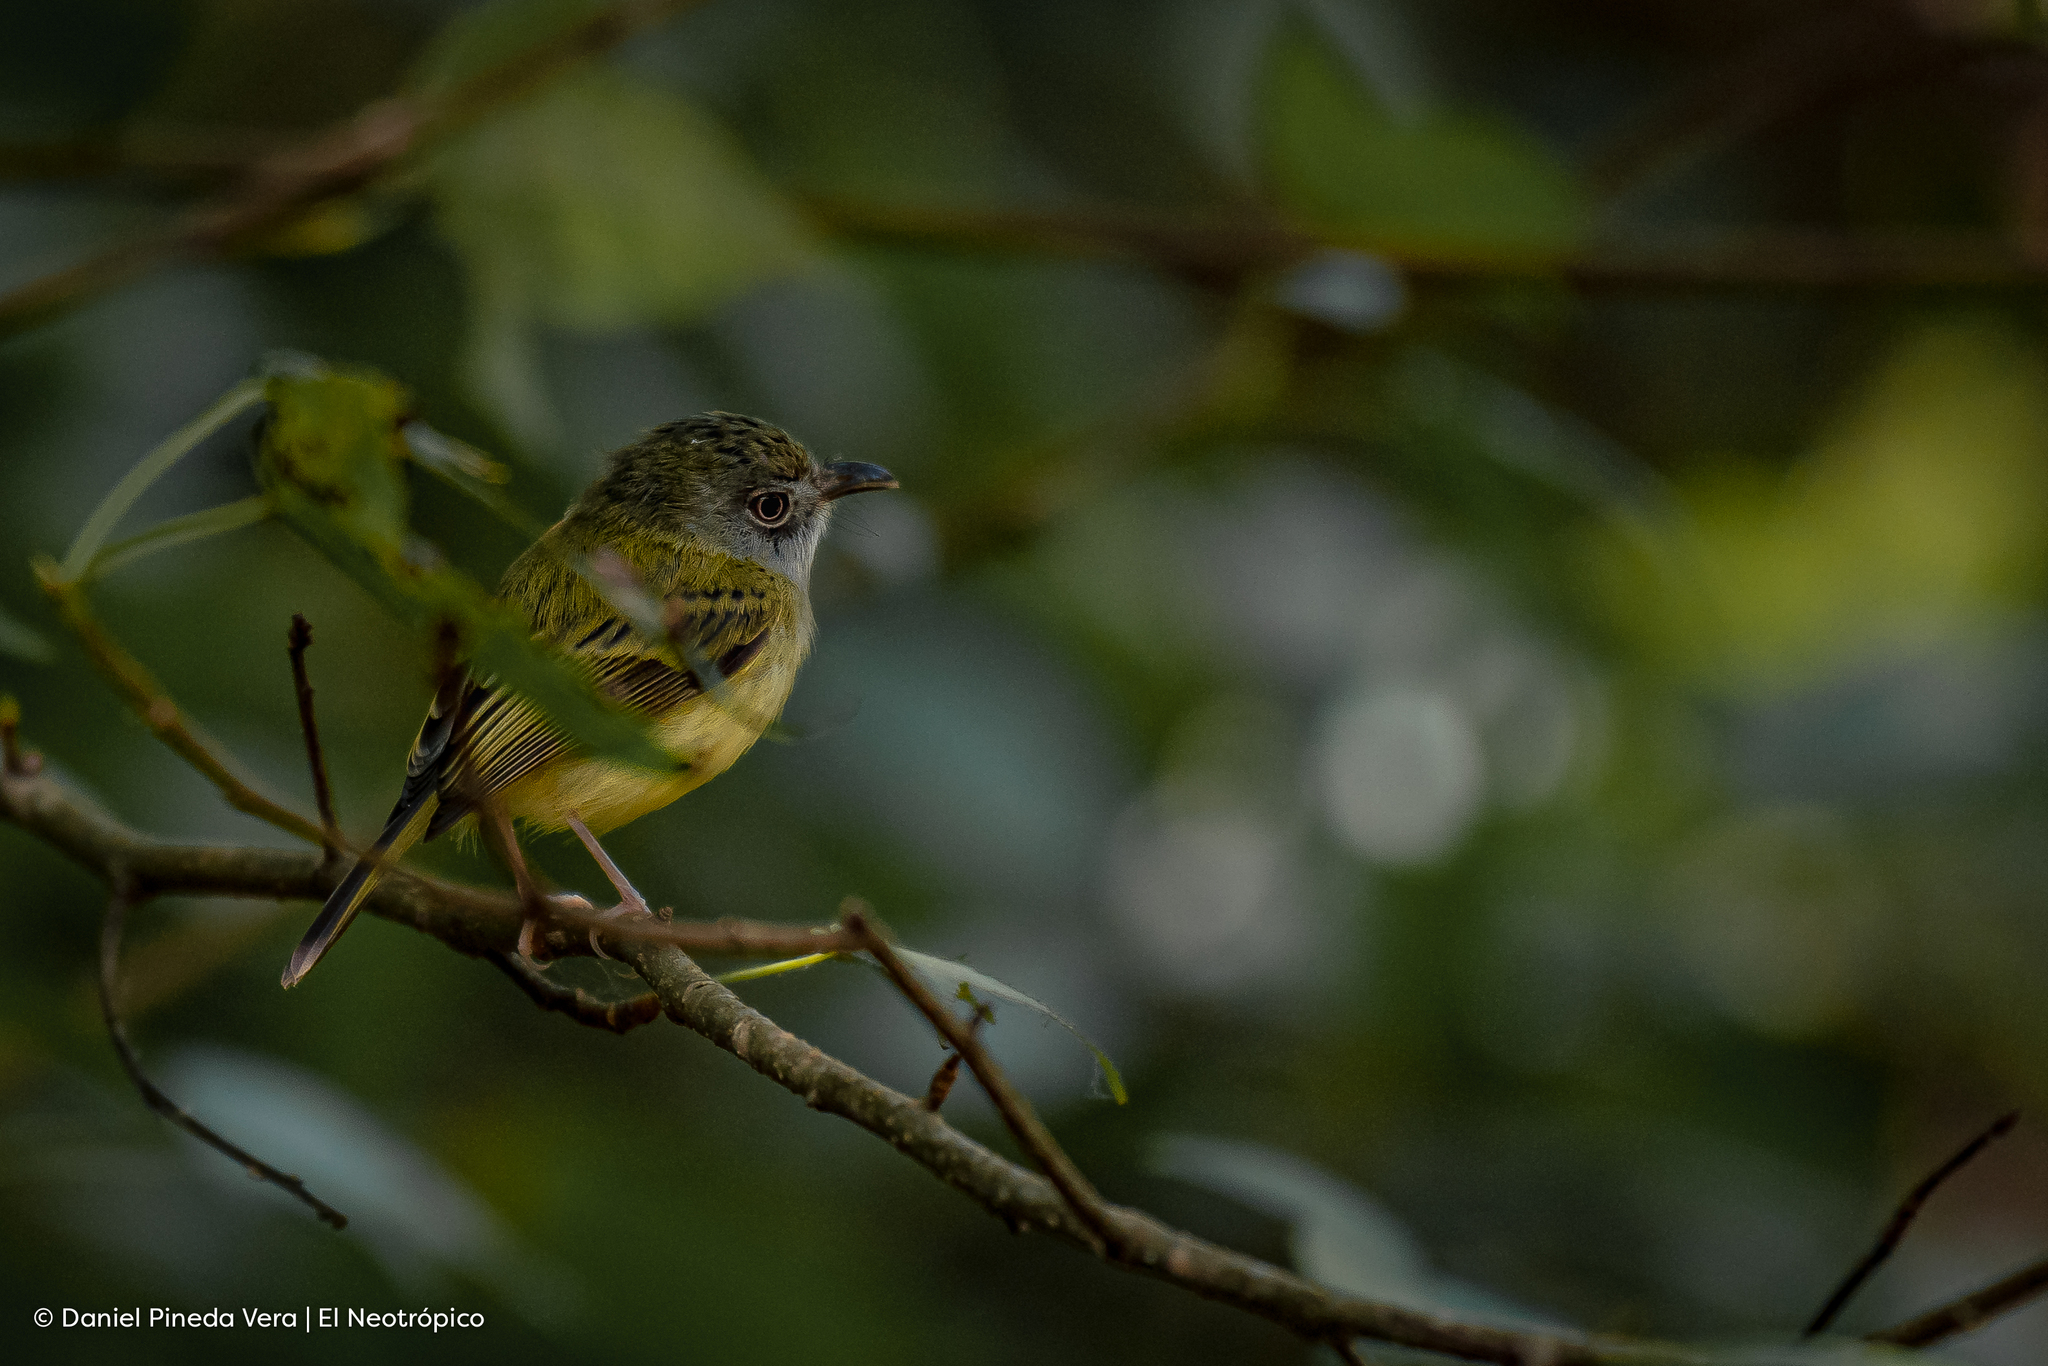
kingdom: Animalia
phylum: Chordata
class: Aves
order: Passeriformes
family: Tyrannidae
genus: Oncostoma
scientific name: Oncostoma cinereigulare
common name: Northern bentbill
